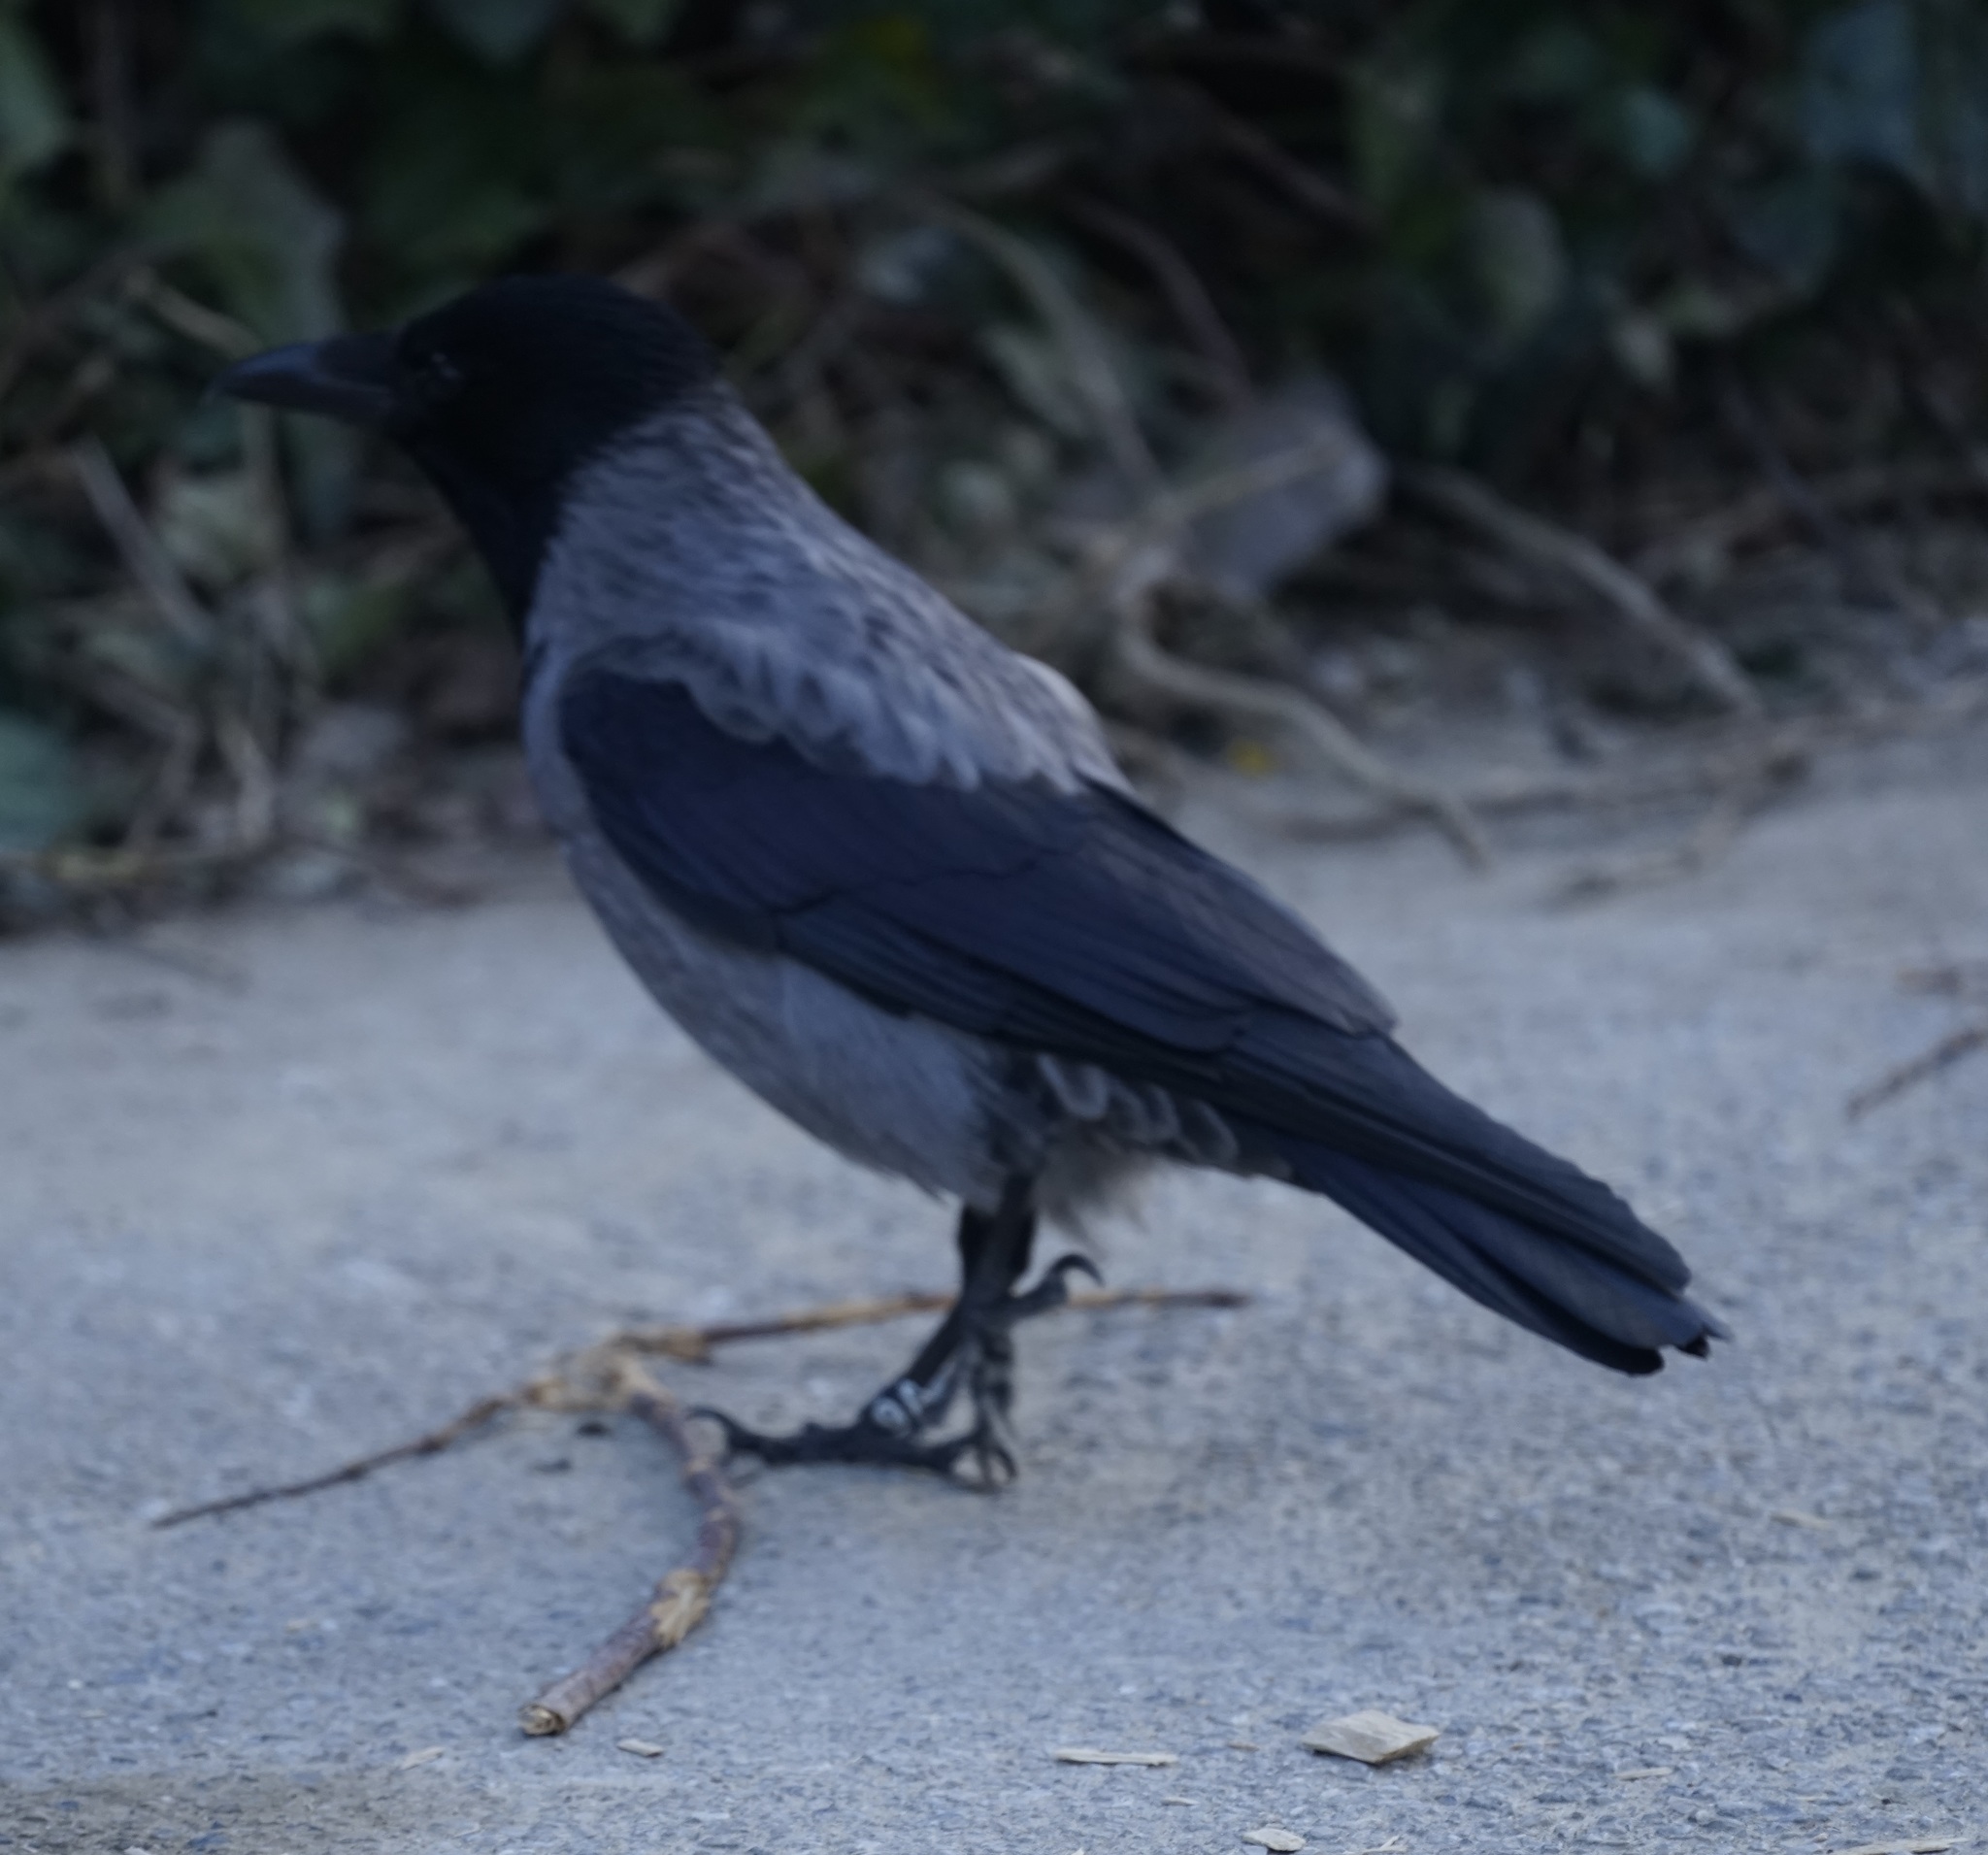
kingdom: Animalia
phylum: Chordata
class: Aves
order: Passeriformes
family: Corvidae
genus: Corvus
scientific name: Corvus cornix
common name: Hooded crow
